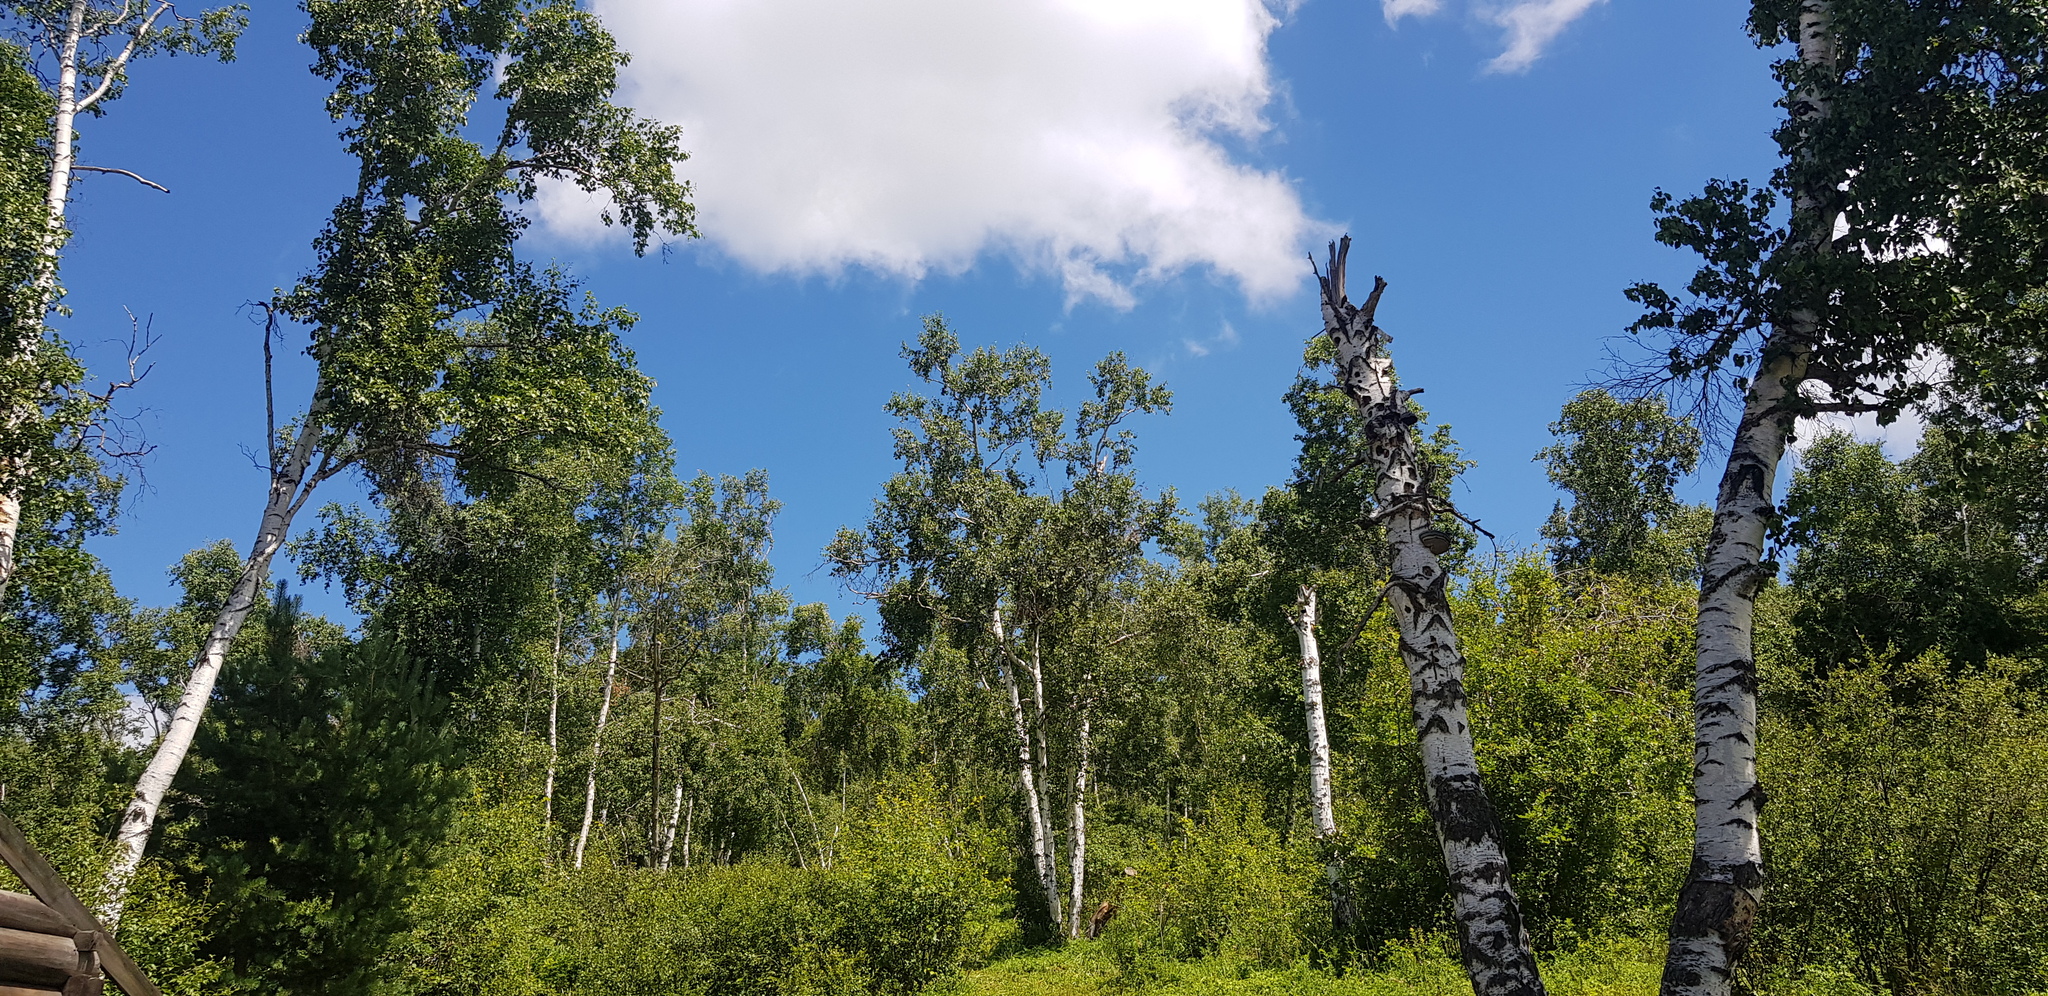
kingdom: Plantae
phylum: Tracheophyta
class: Magnoliopsida
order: Fagales
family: Betulaceae
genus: Betula
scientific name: Betula pendula
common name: Silver birch
